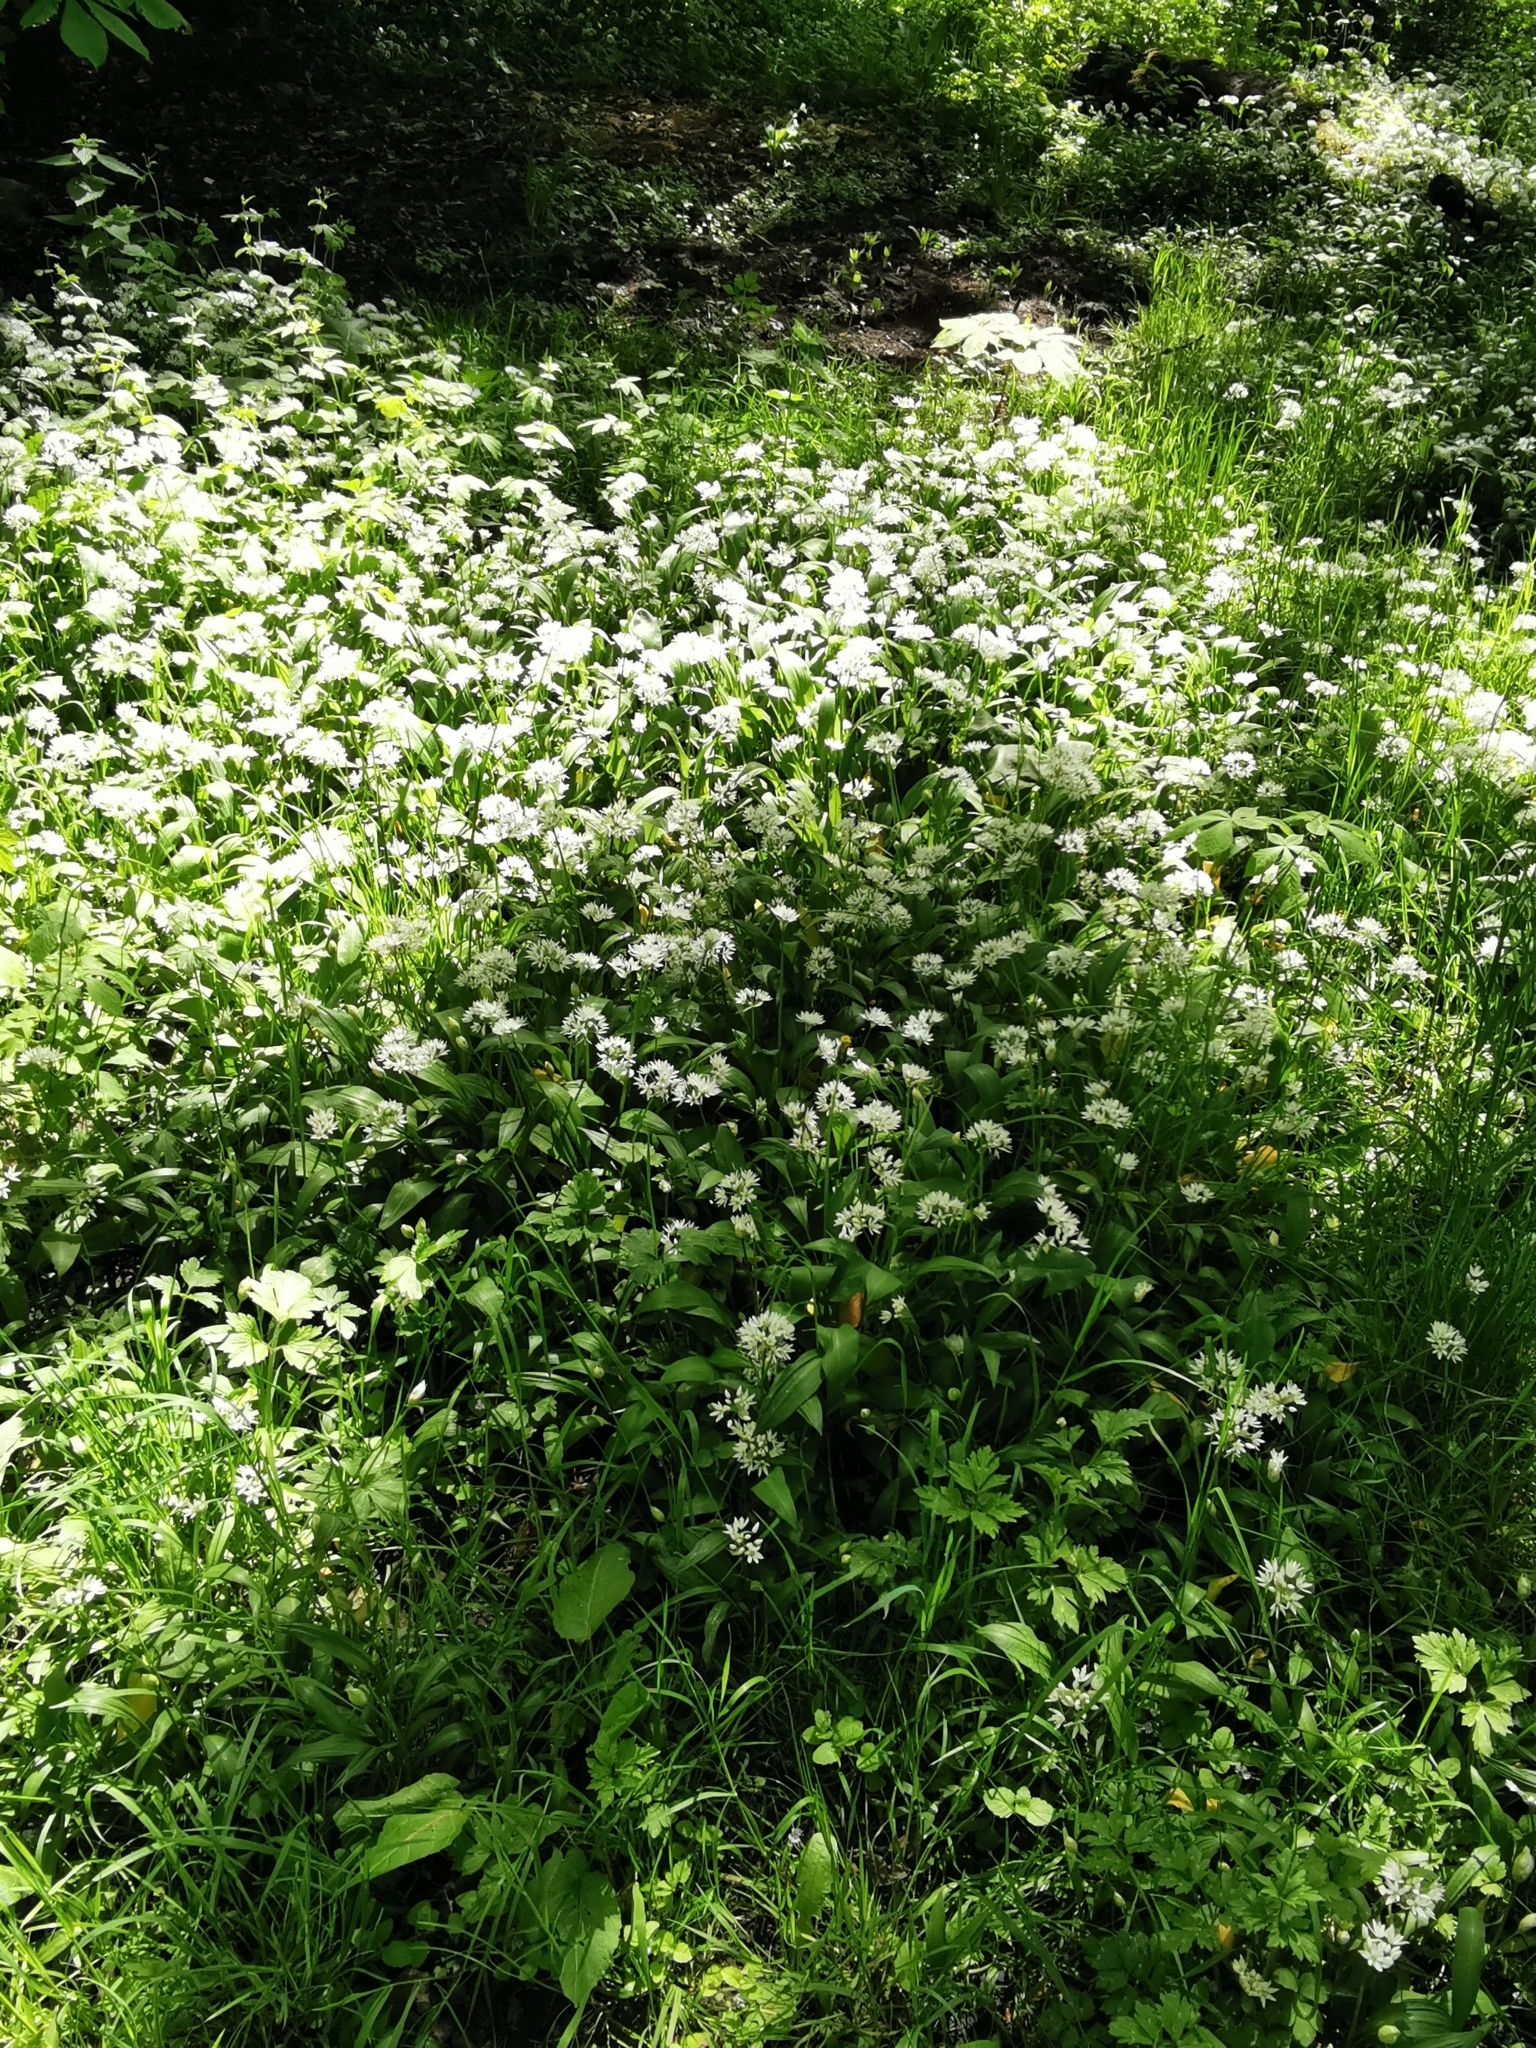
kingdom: Plantae
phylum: Tracheophyta
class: Liliopsida
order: Asparagales
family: Amaryllidaceae
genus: Allium
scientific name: Allium ursinum
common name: Ramsons
